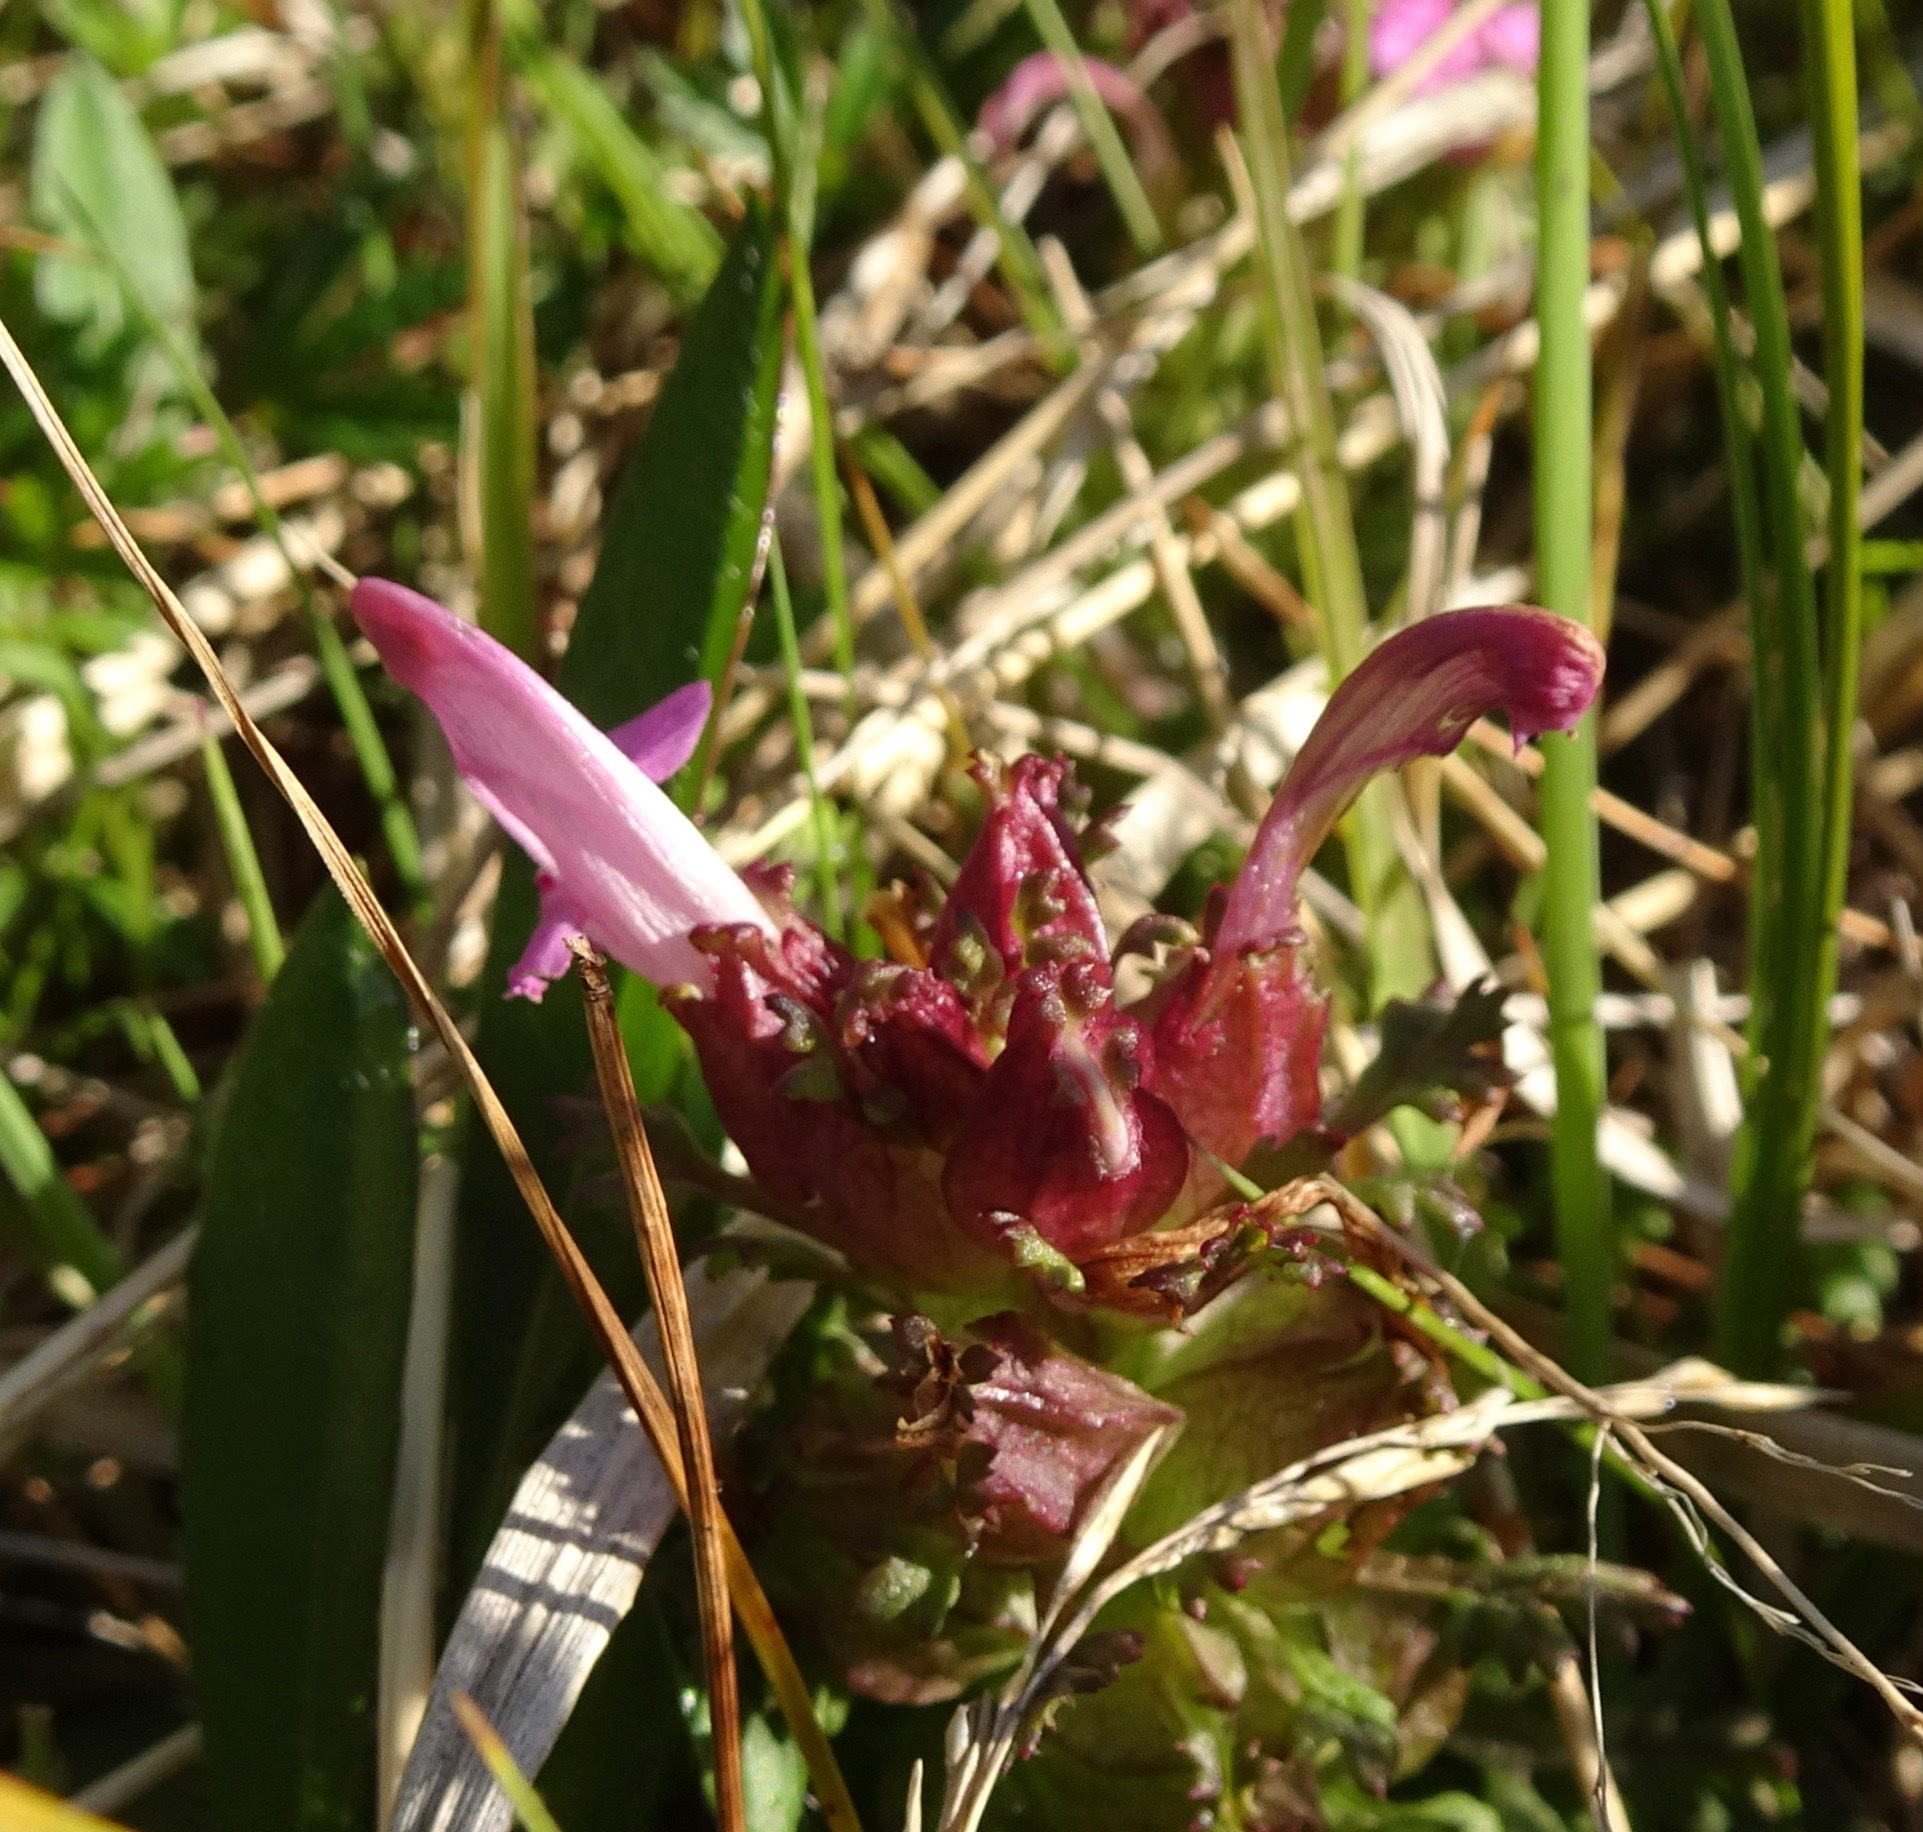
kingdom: Plantae
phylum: Tracheophyta
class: Magnoliopsida
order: Lamiales
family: Orobanchaceae
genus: Pedicularis
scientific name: Pedicularis sylvatica
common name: Lousewort
